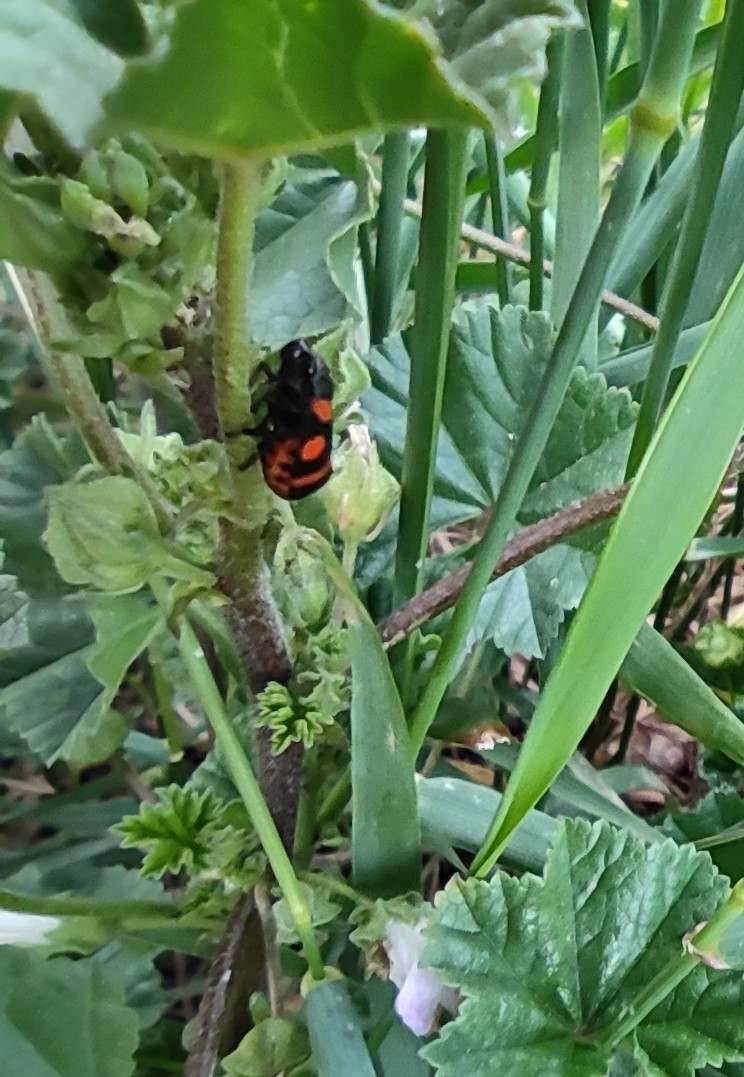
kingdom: Animalia
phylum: Arthropoda
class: Insecta
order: Hemiptera
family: Cercopidae
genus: Cercopis
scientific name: Cercopis sanguinolenta
